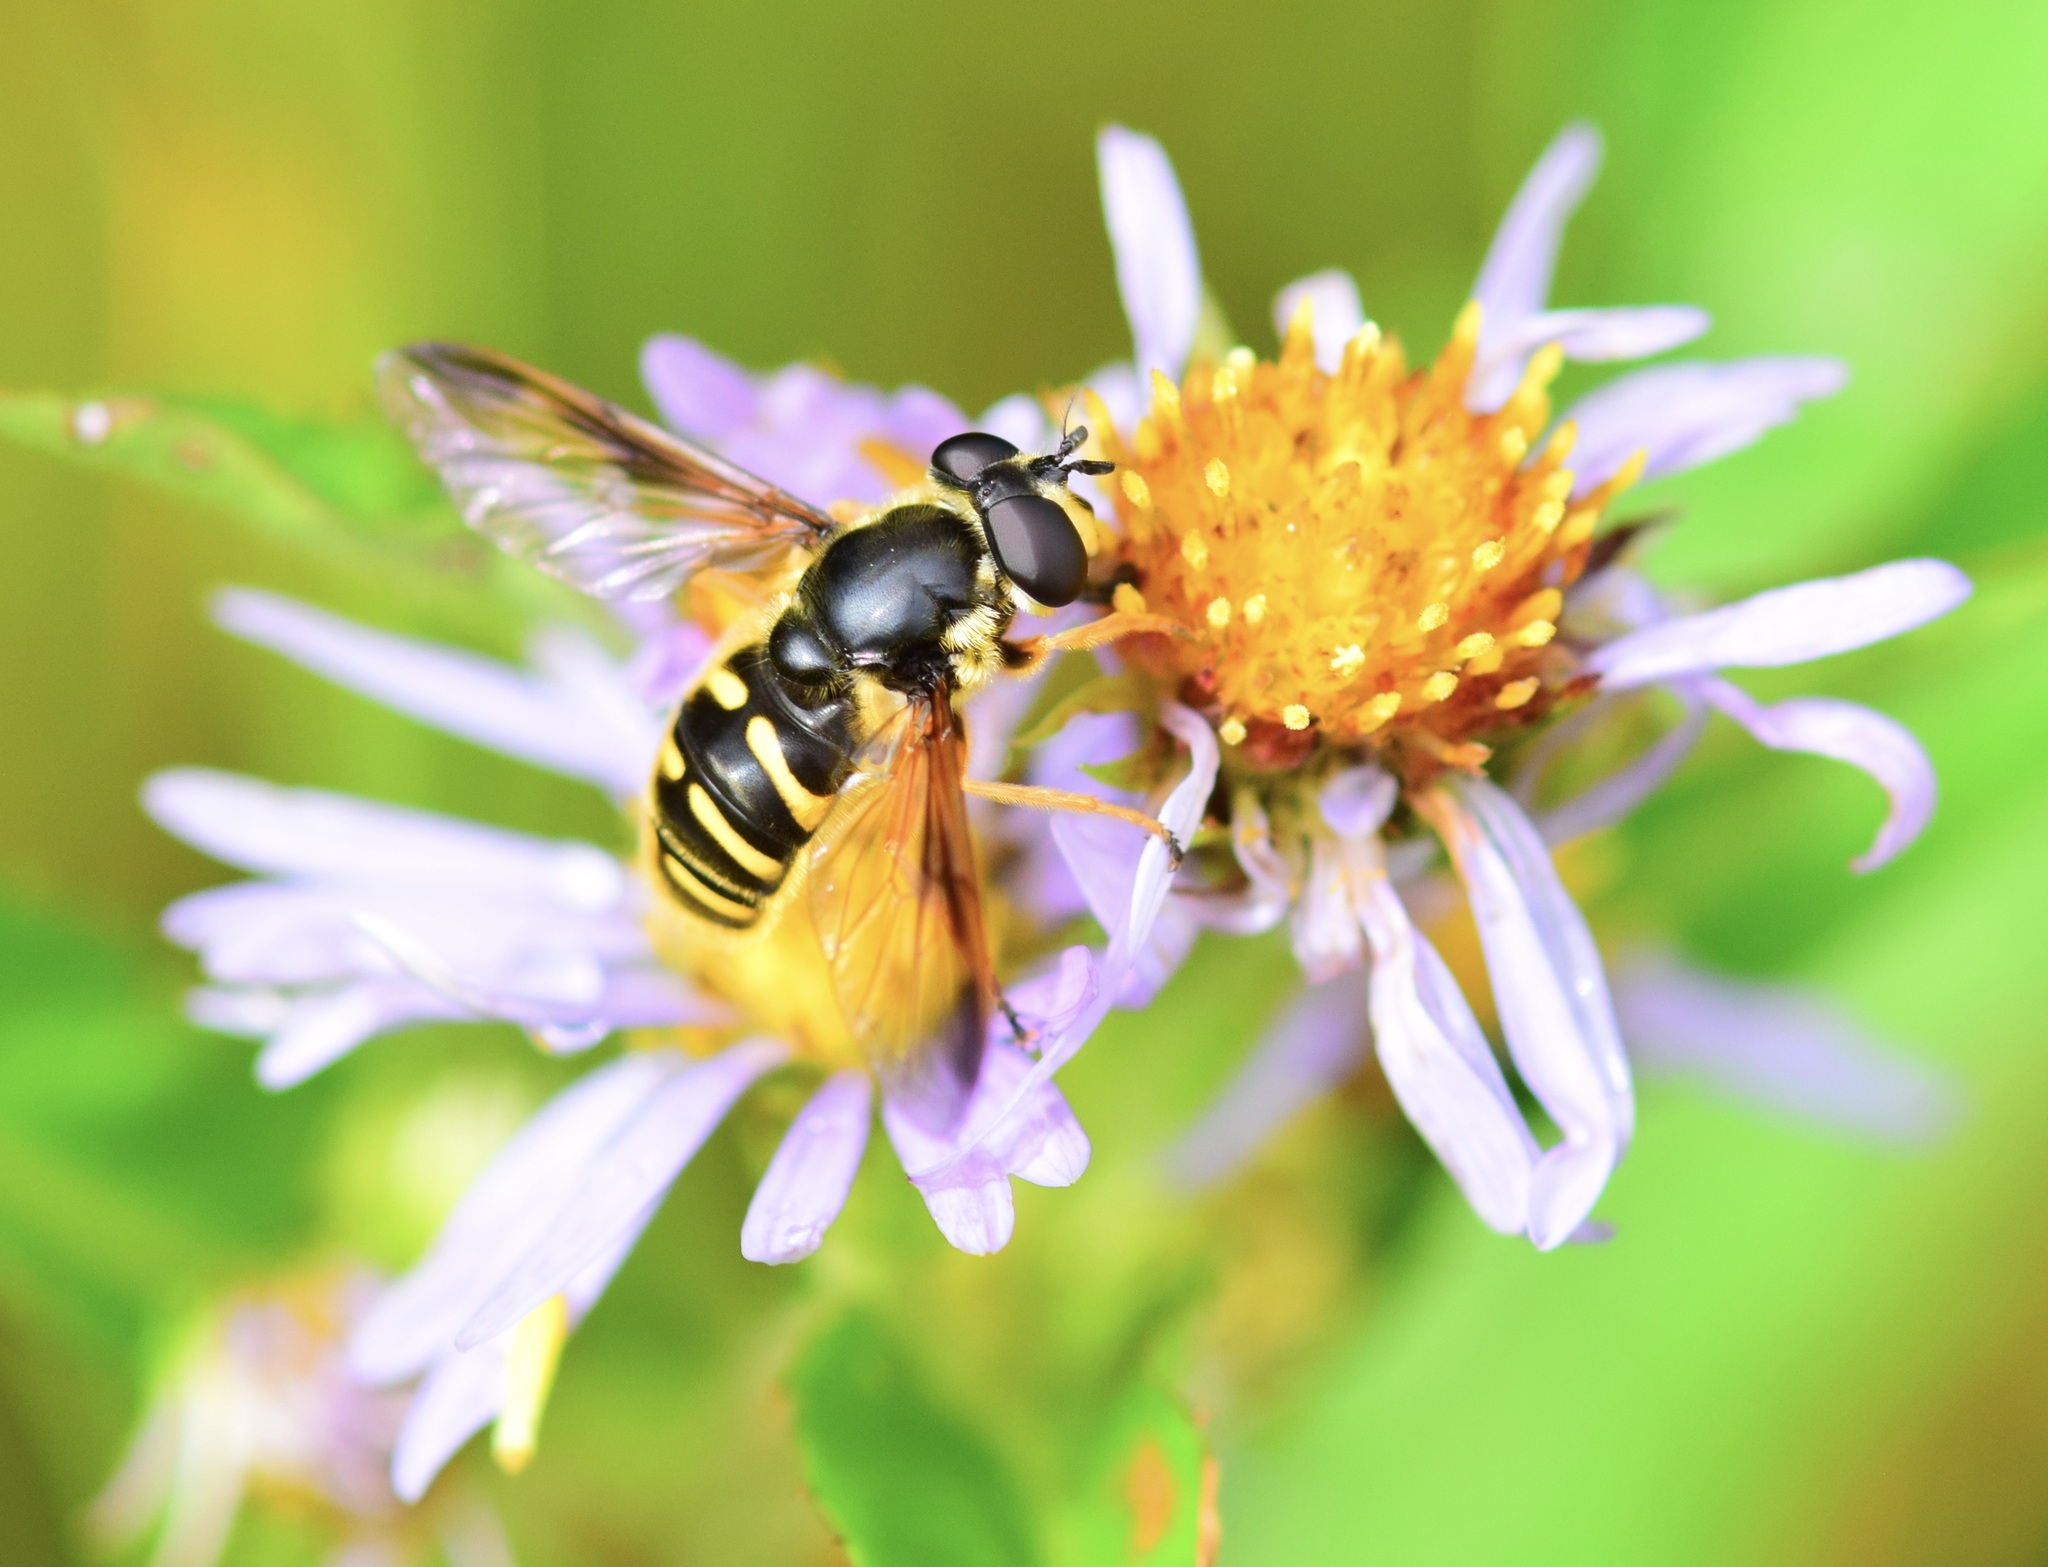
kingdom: Animalia
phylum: Arthropoda
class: Insecta
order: Diptera
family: Syrphidae
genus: Sericomyia
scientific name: Sericomyia chrysotoxoides
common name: Oblique-banded pond fly
